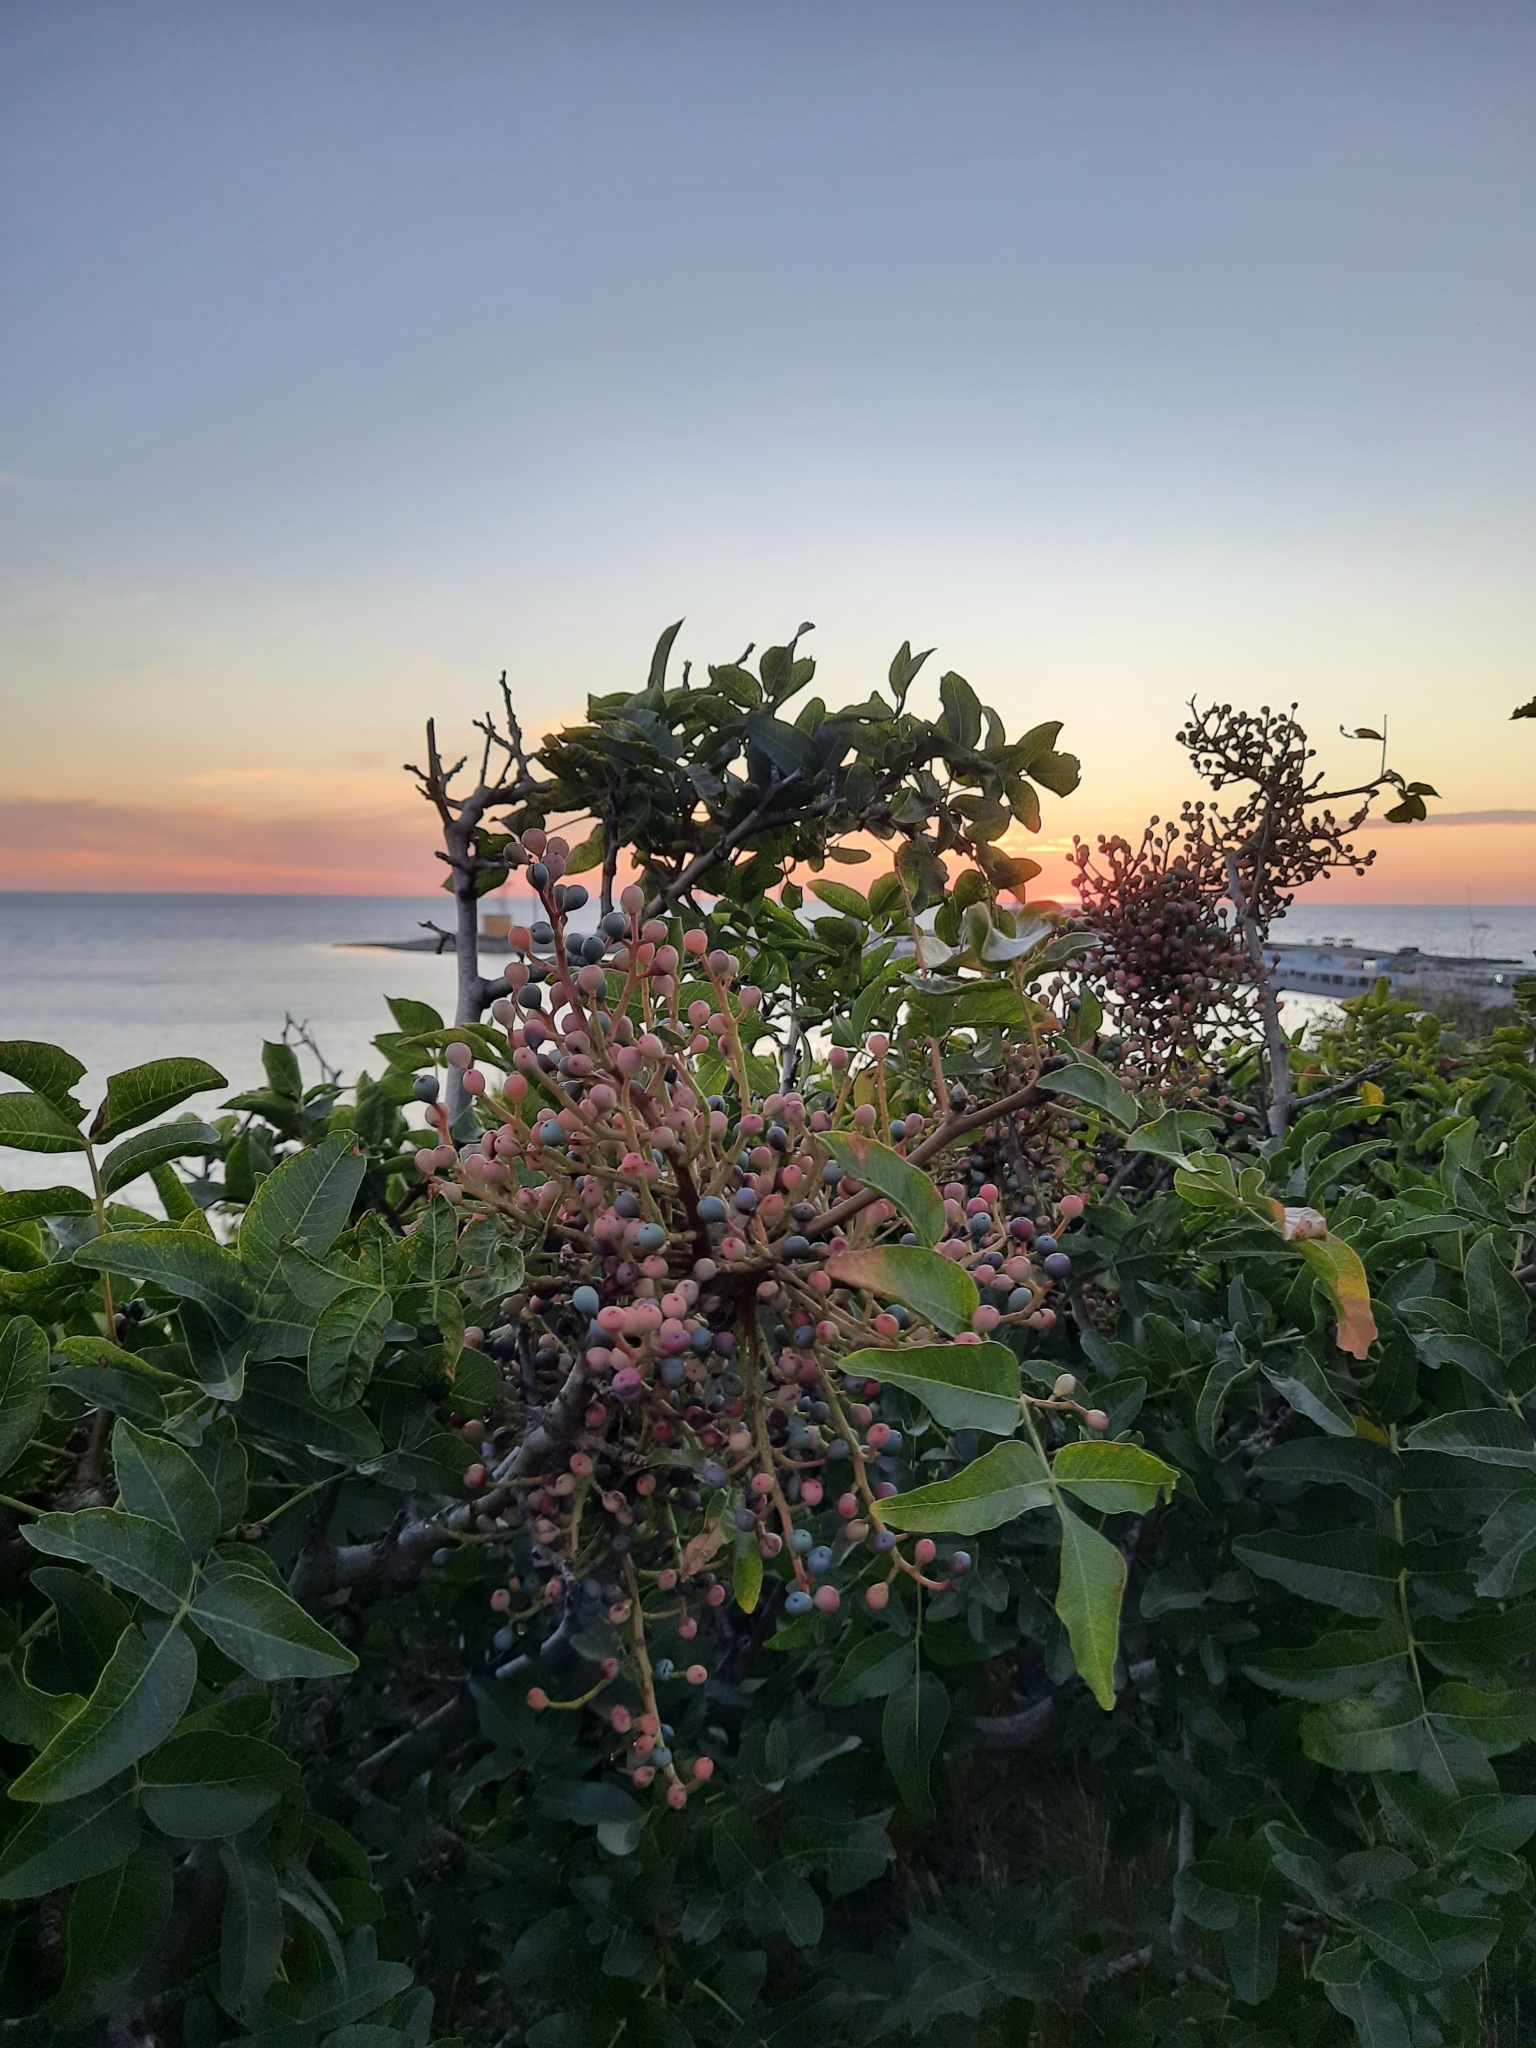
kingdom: Plantae
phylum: Tracheophyta
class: Magnoliopsida
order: Sapindales
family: Anacardiaceae
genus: Pistacia
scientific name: Pistacia atlantica
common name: Mt. atlas mastic tree
